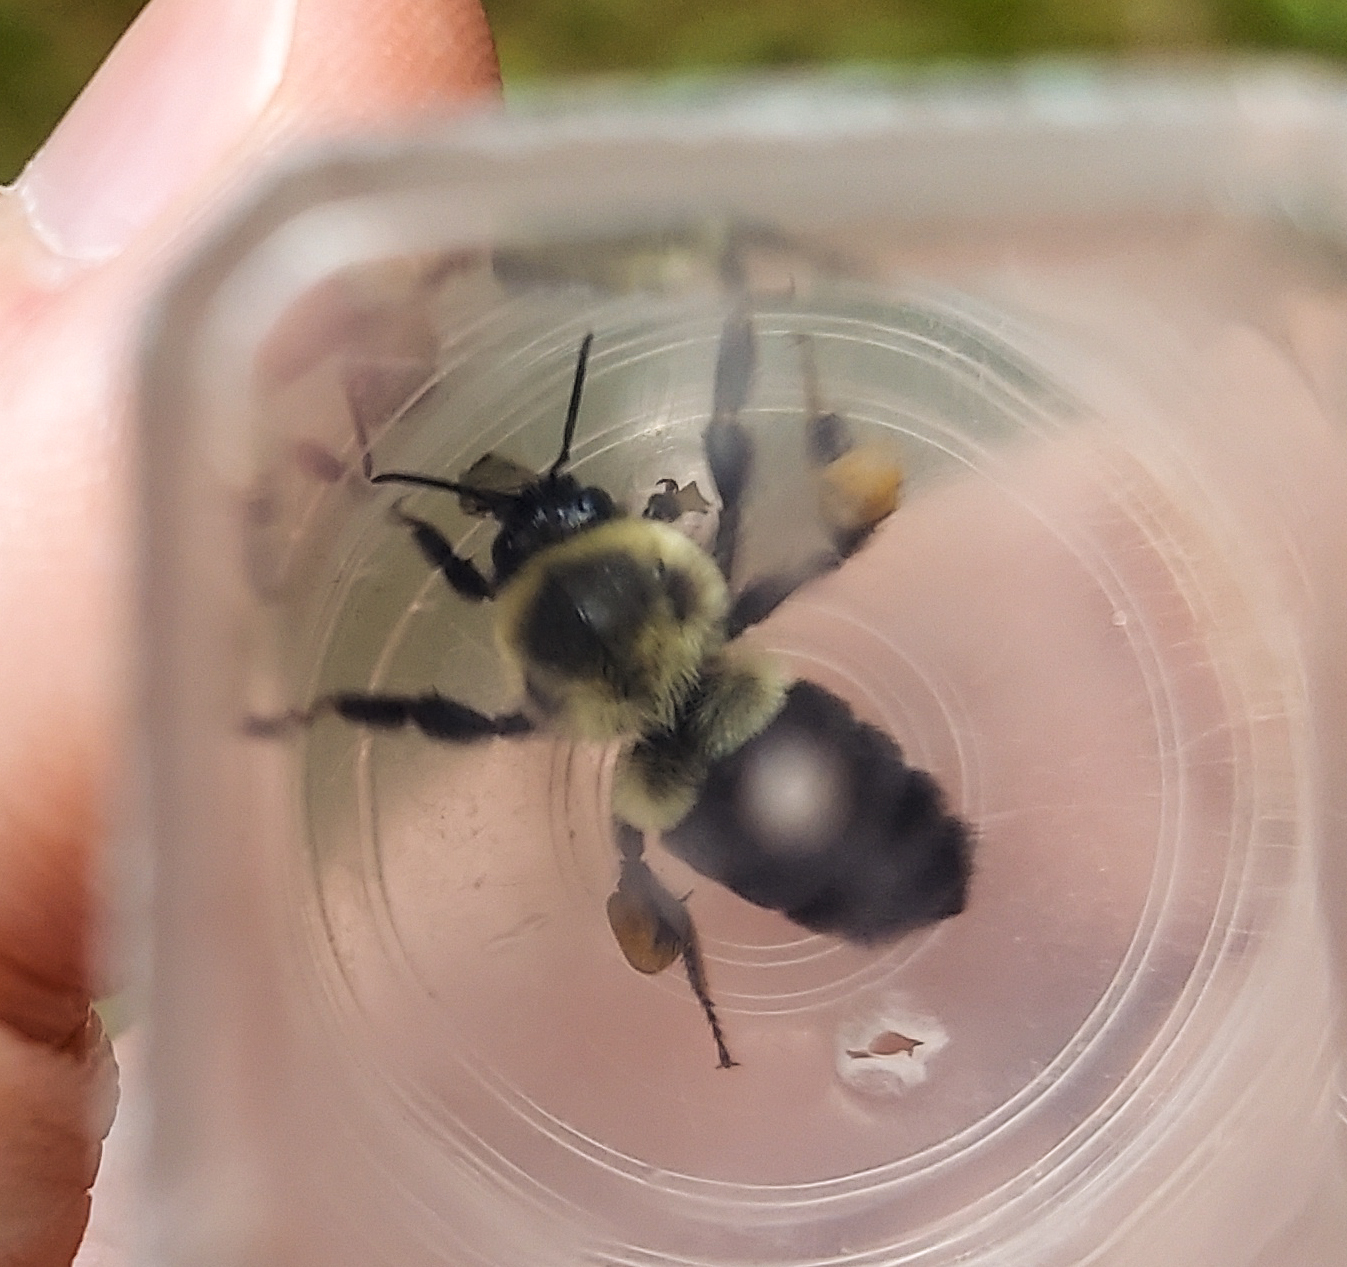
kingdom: Animalia
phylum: Arthropoda
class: Insecta
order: Hymenoptera
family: Apidae
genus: Bombus
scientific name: Bombus impatiens
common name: Common eastern bumble bee
